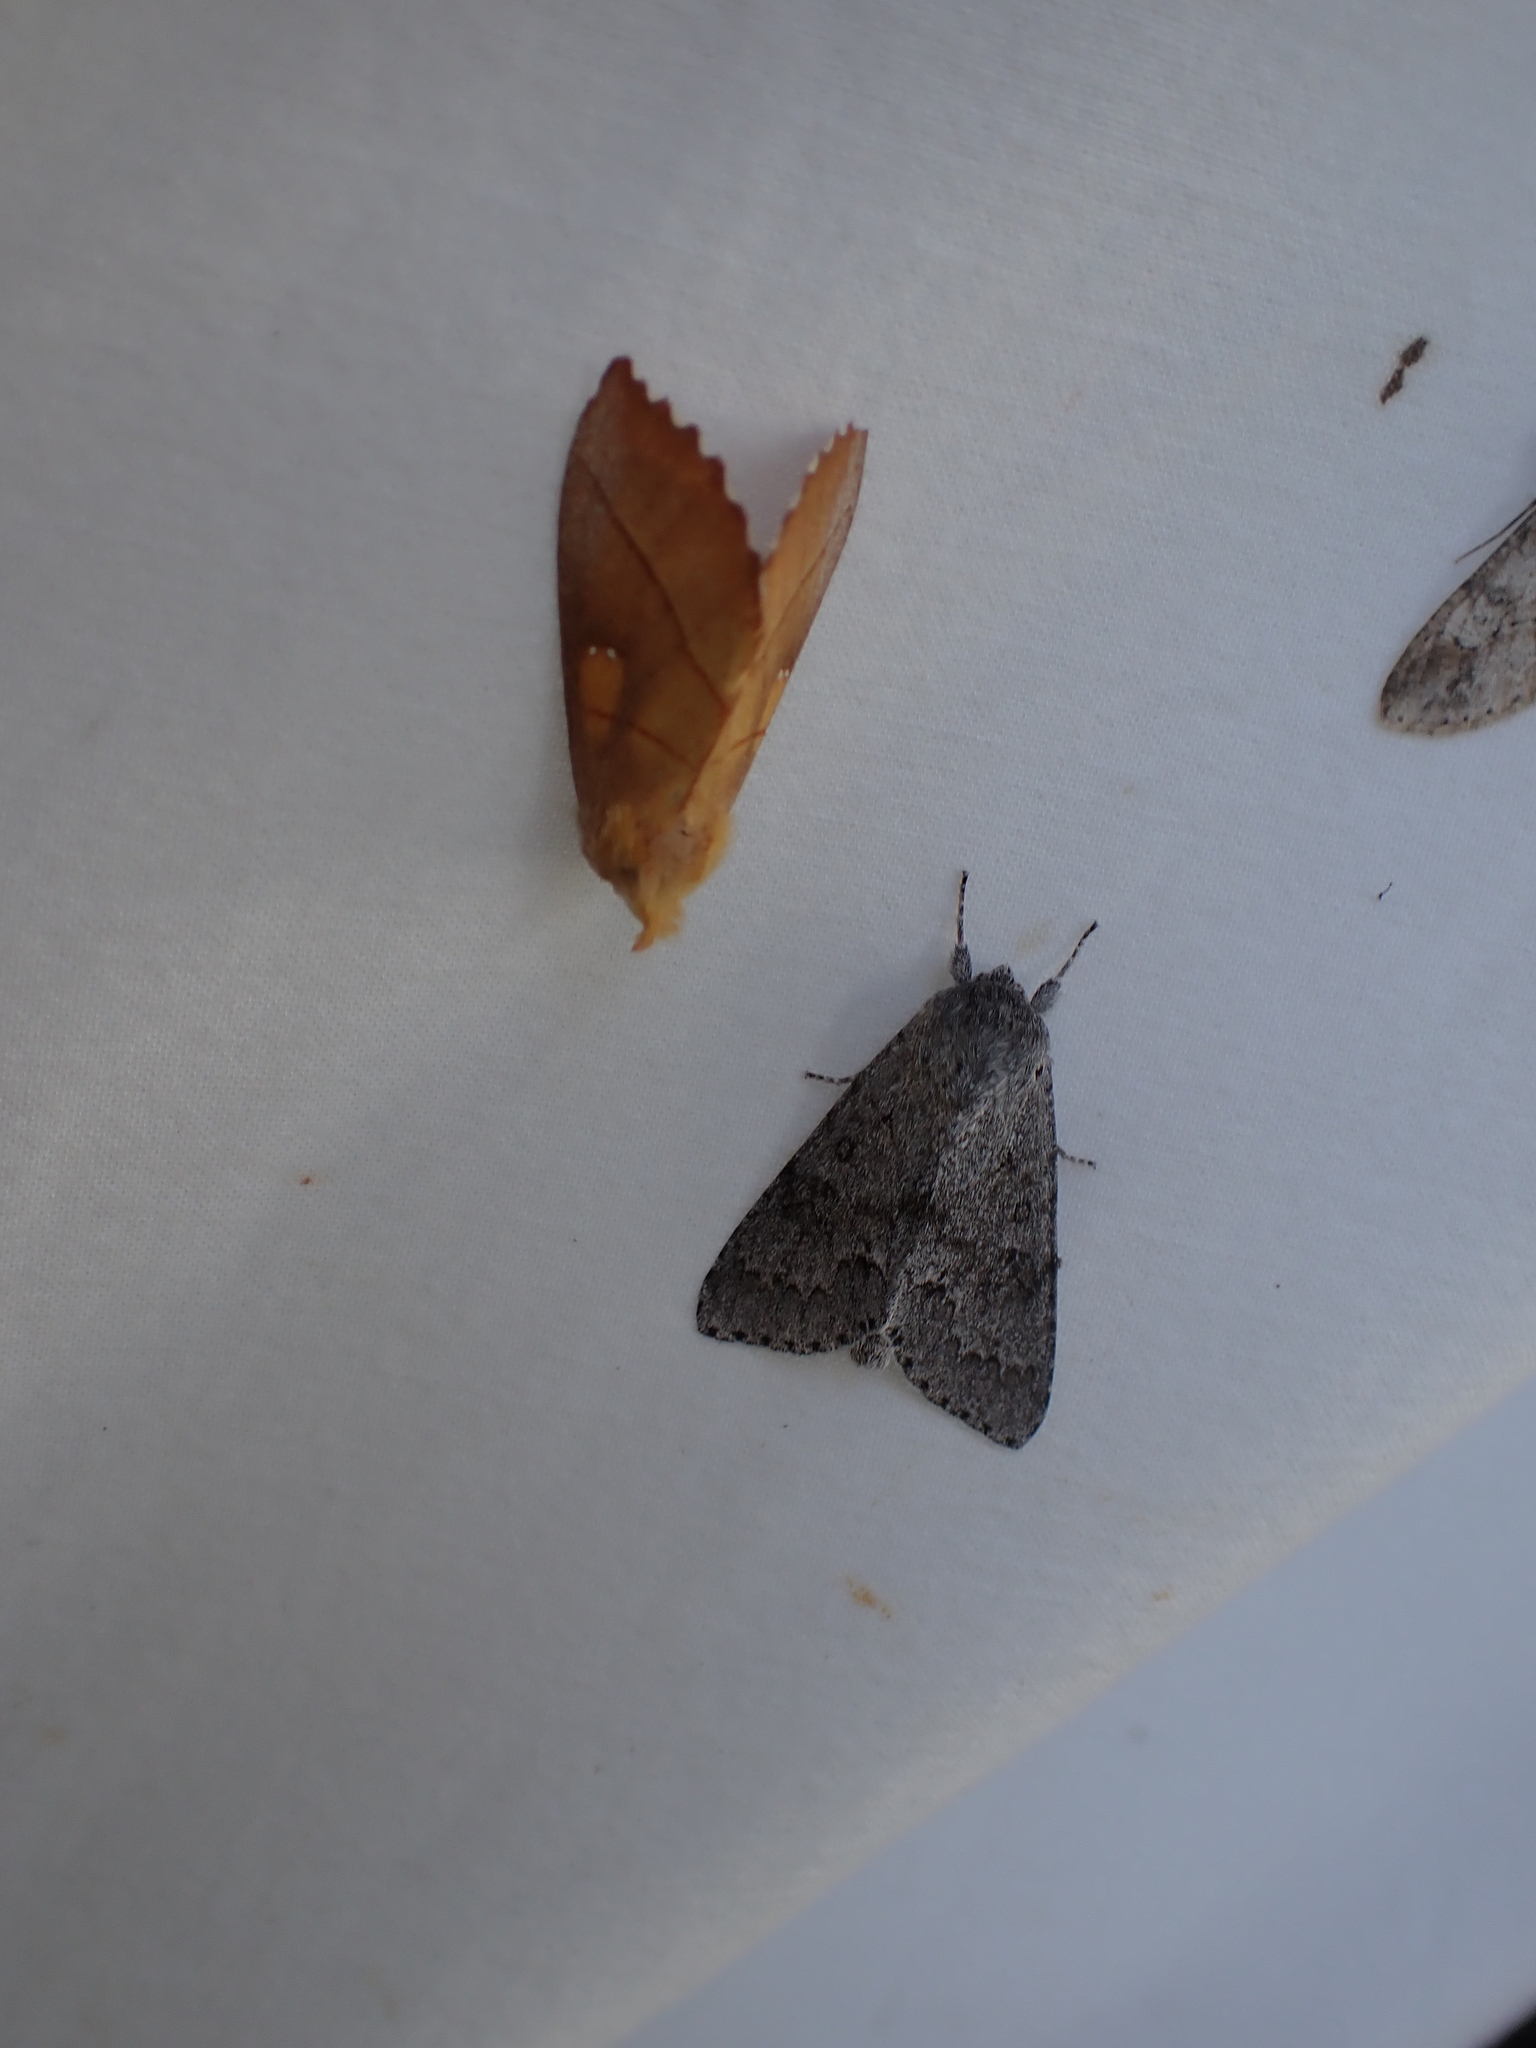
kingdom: Animalia
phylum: Arthropoda
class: Insecta
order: Lepidoptera
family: Notodontidae
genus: Nadata
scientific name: Nadata gibbosa
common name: White-dotted prominent
